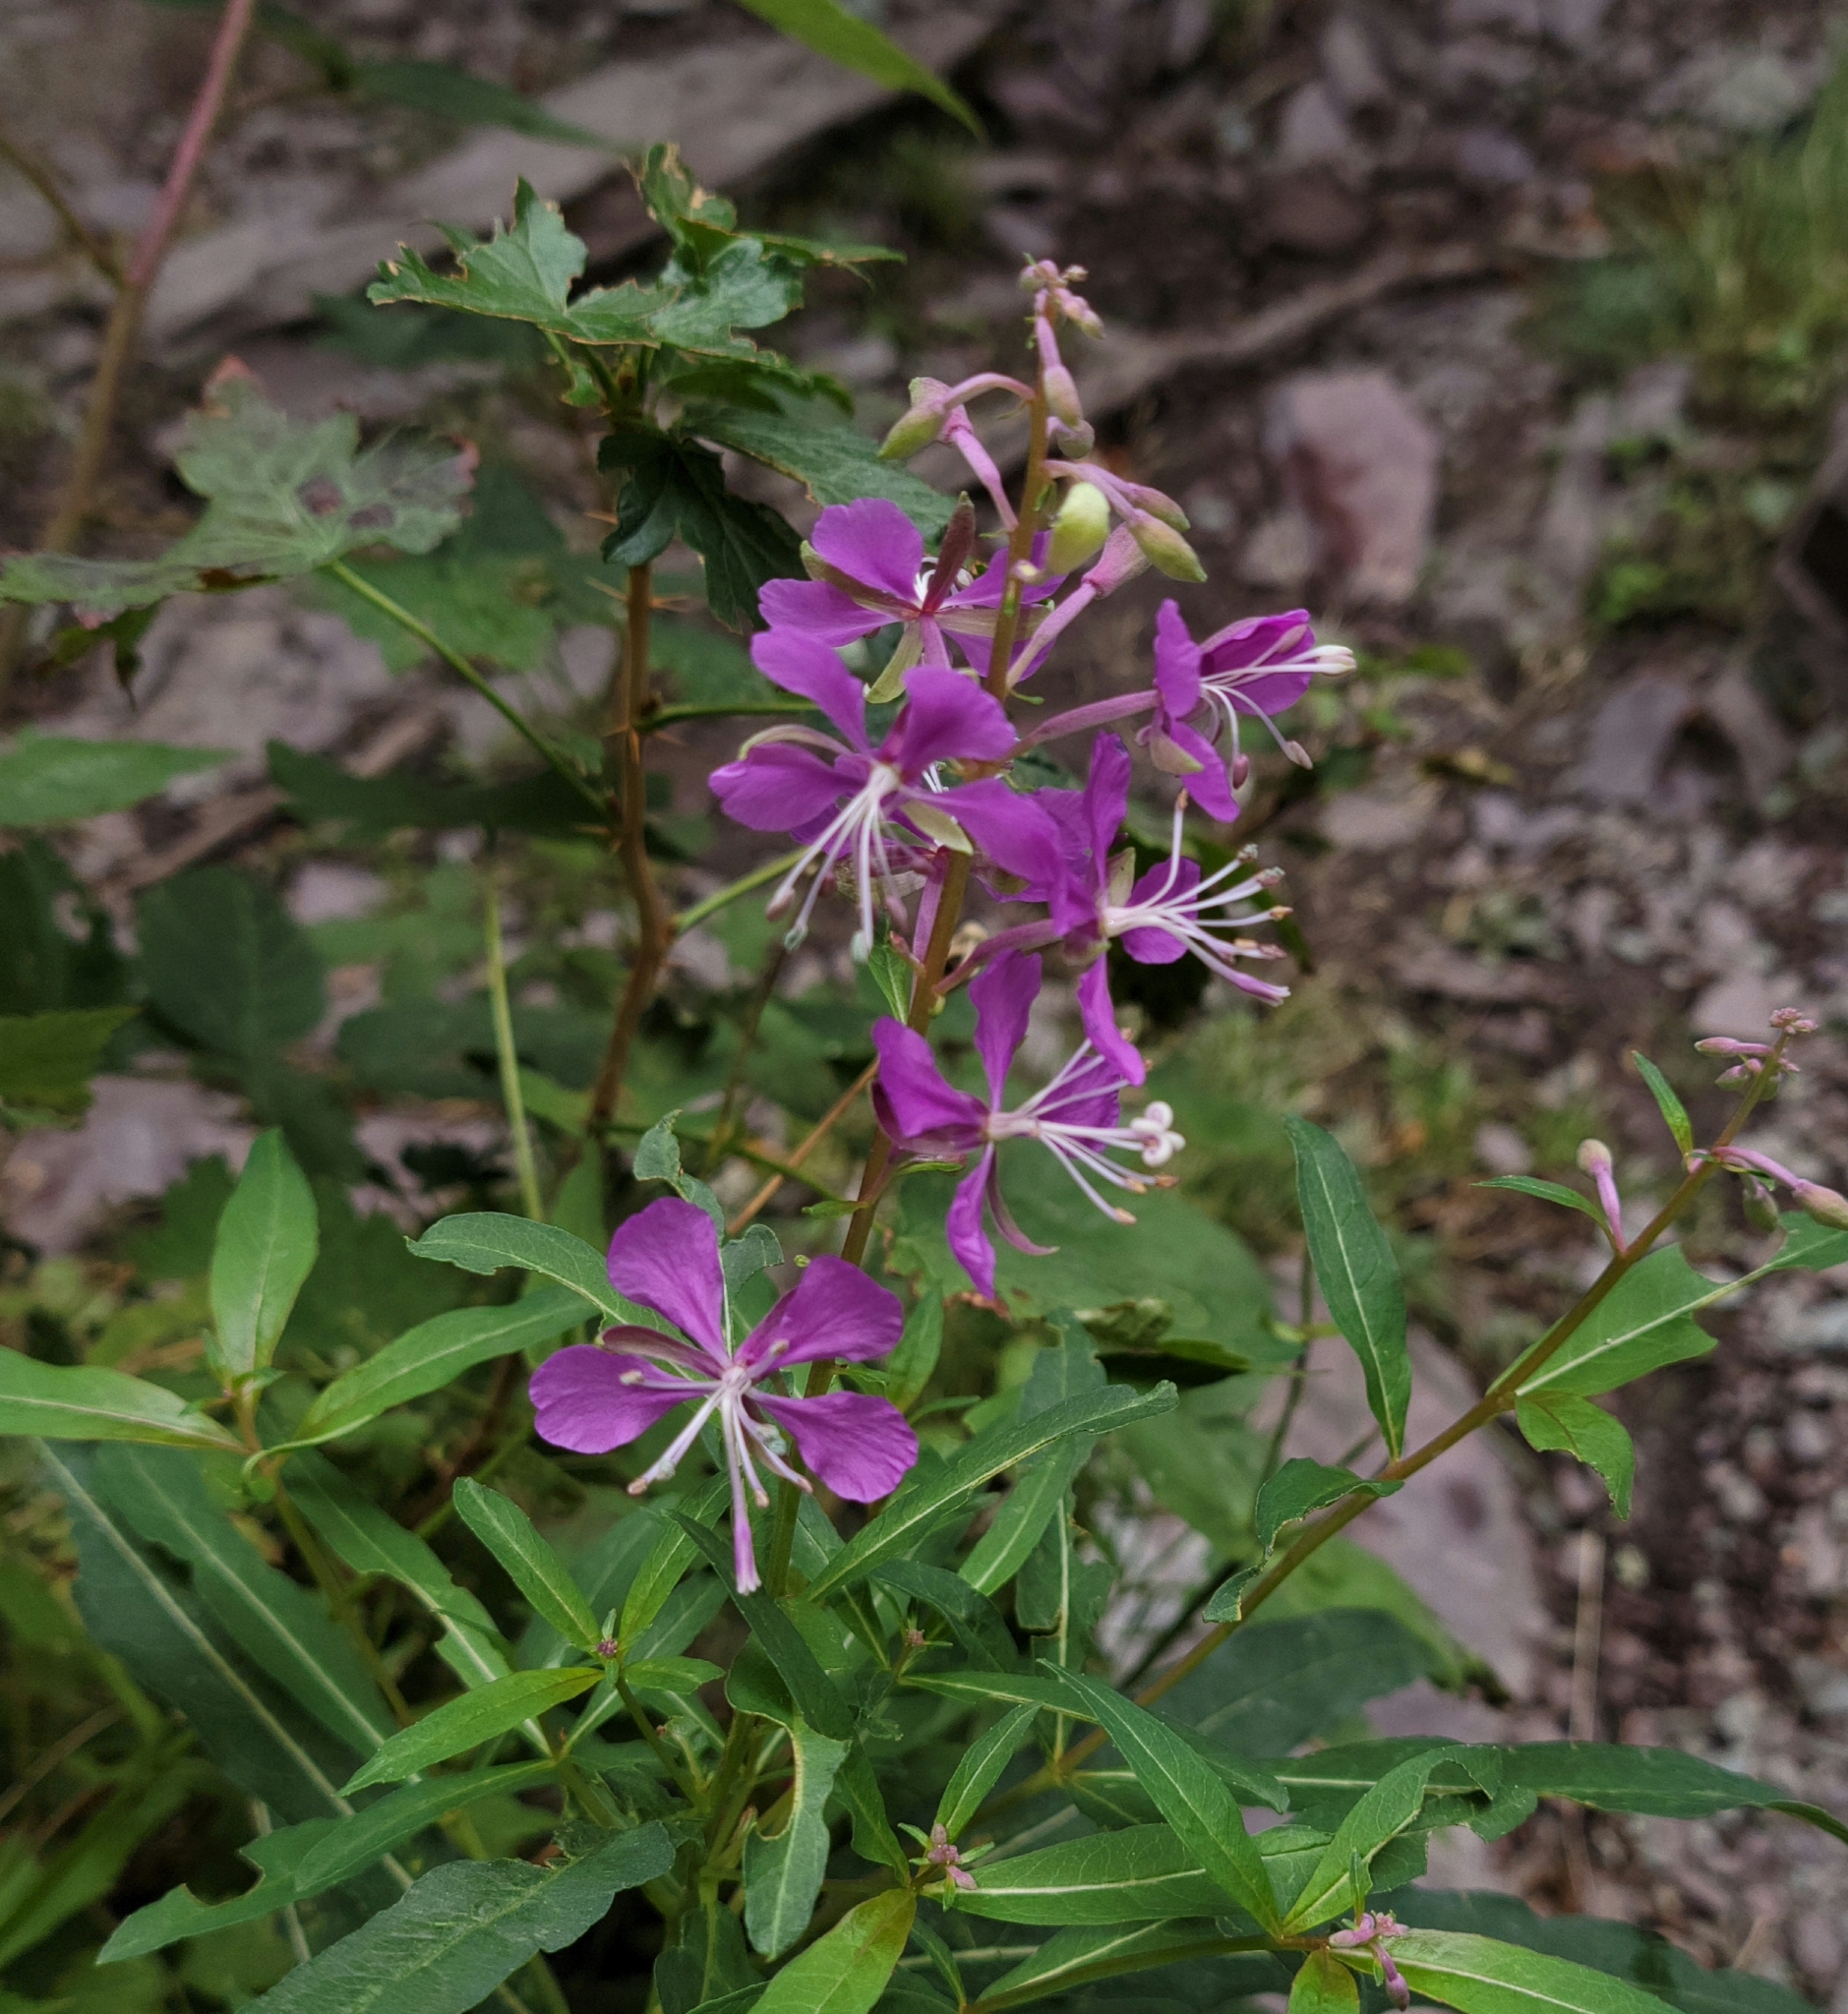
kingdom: Plantae
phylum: Tracheophyta
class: Magnoliopsida
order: Myrtales
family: Onagraceae
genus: Chamaenerion
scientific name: Chamaenerion angustifolium
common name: Fireweed
